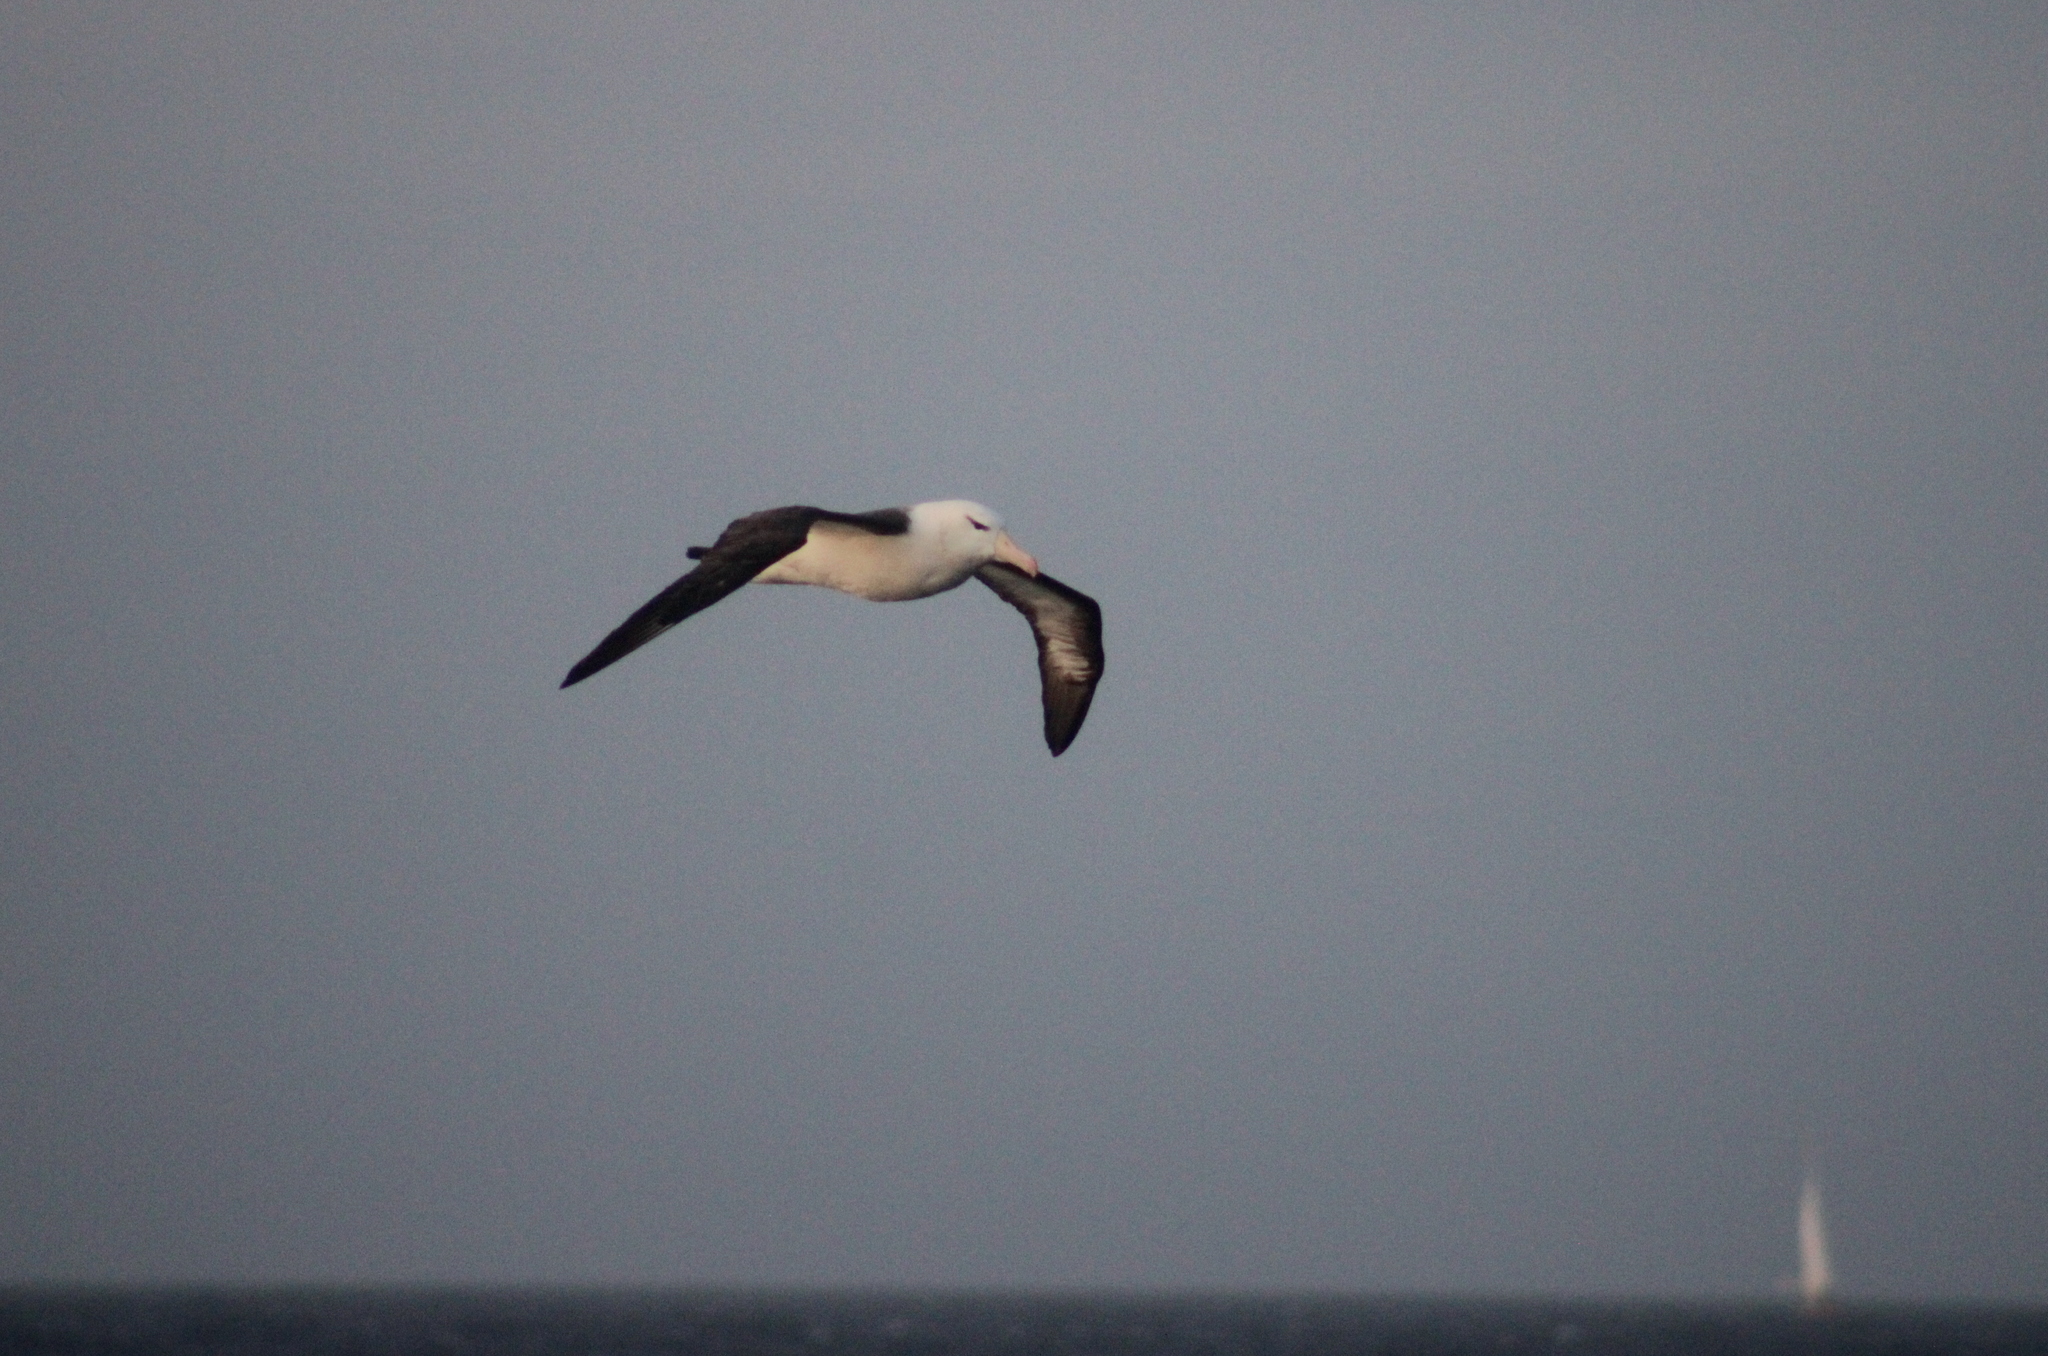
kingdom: Animalia
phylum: Chordata
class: Aves
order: Procellariiformes
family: Diomedeidae
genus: Thalassarche
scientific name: Thalassarche melanophris
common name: Black-browed albatross
